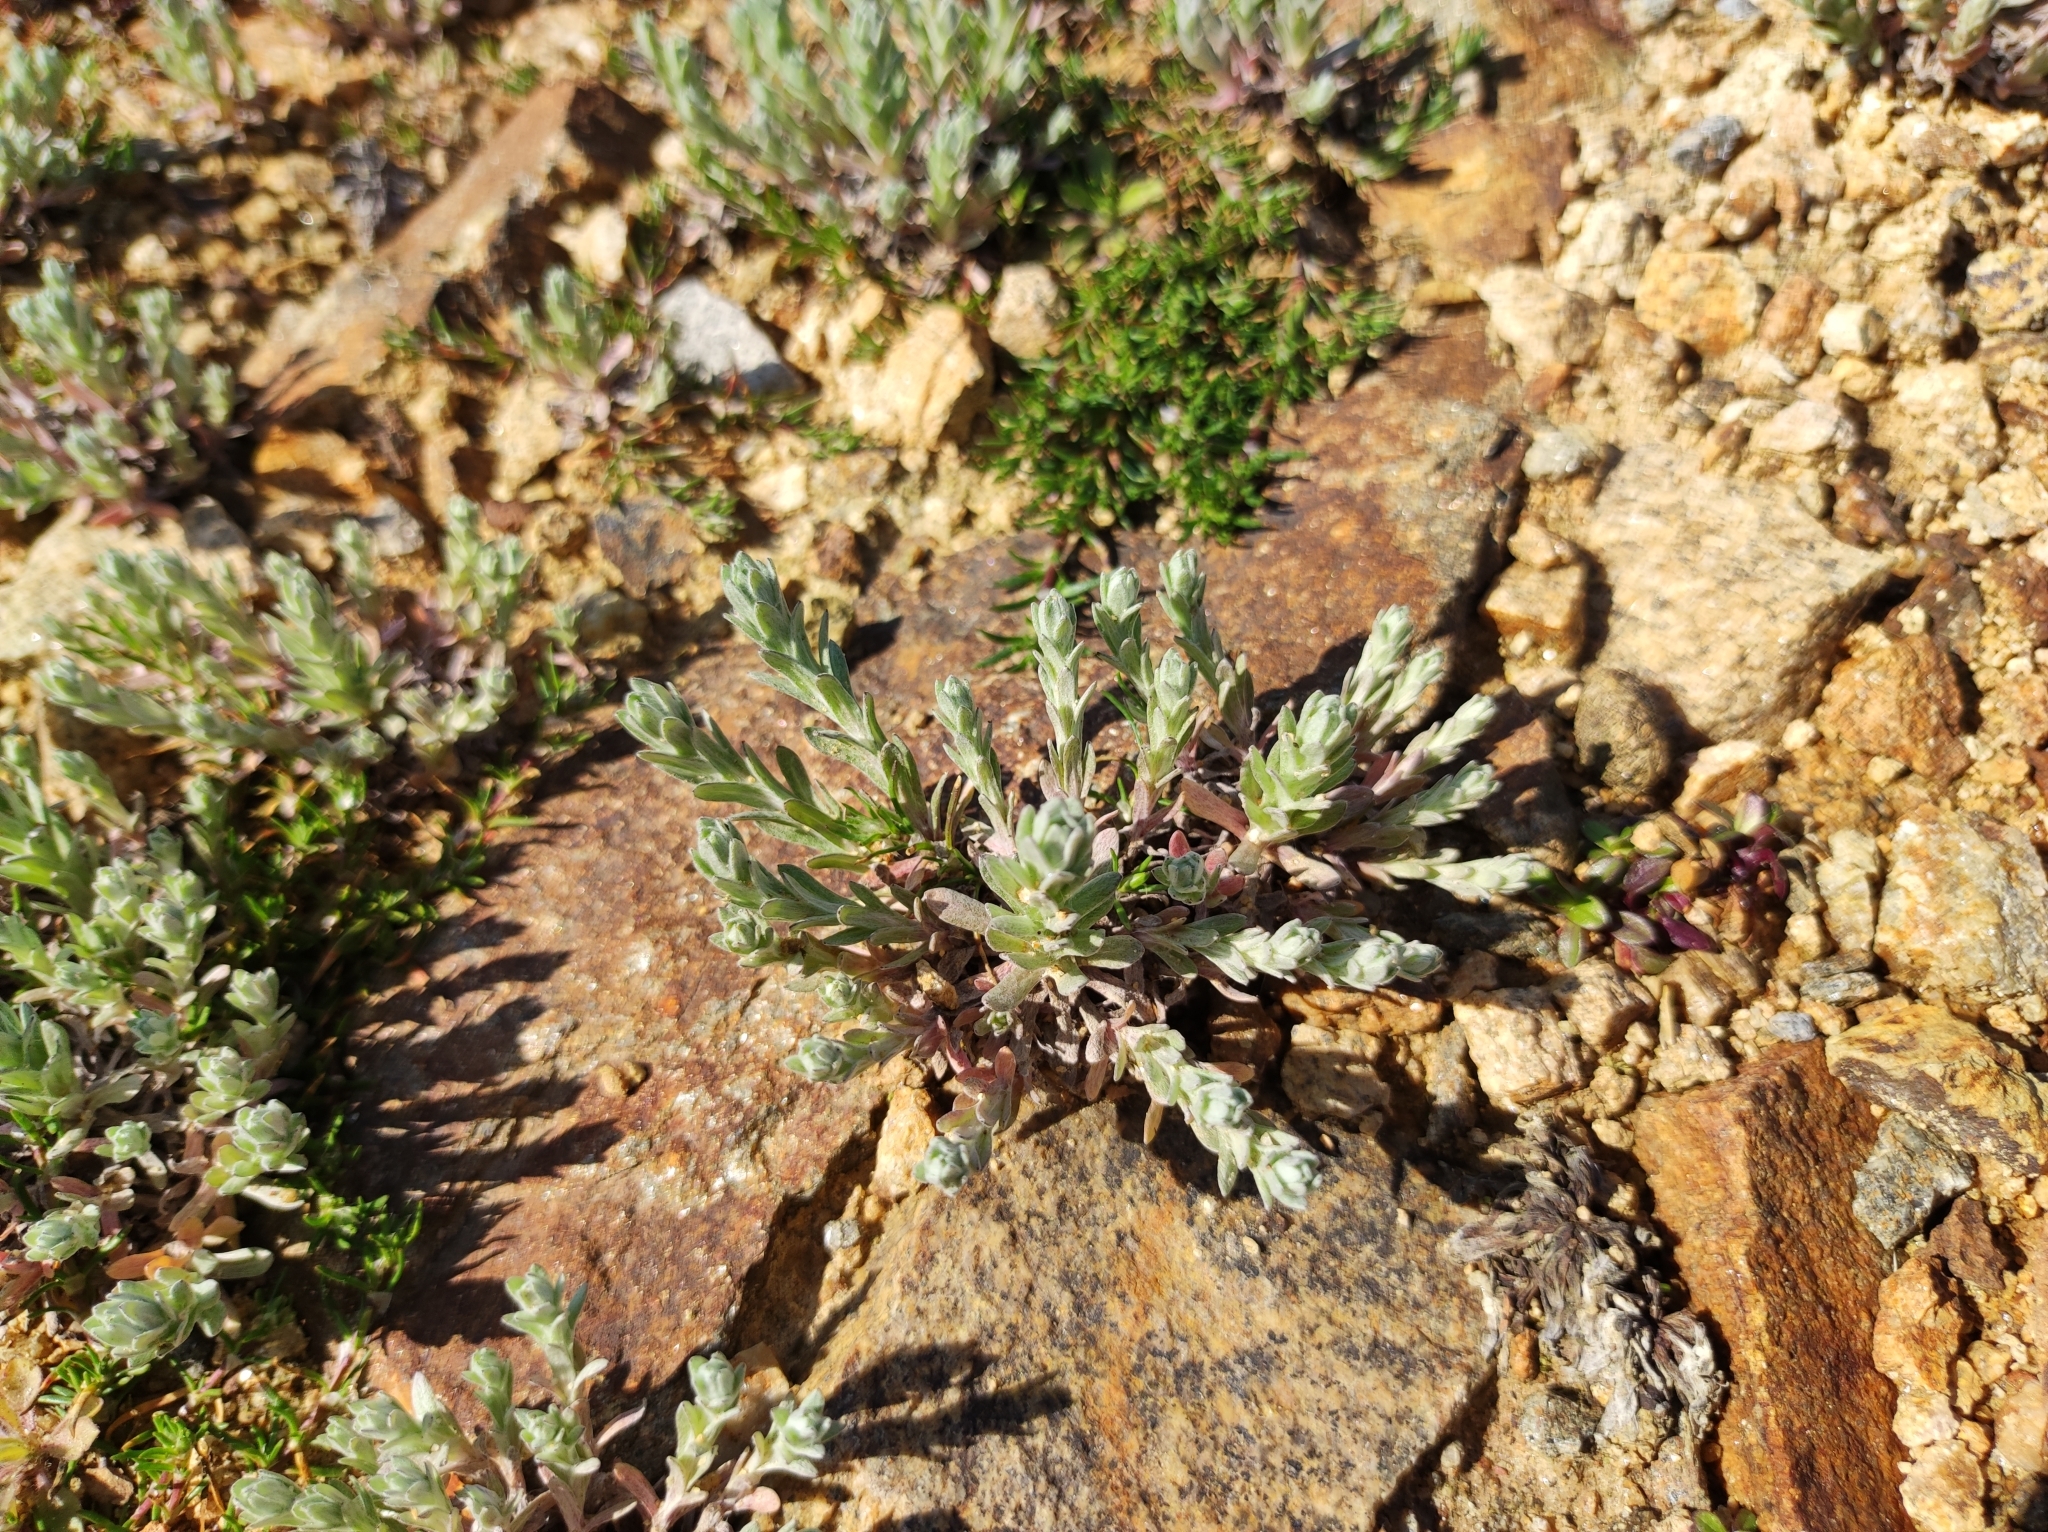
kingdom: Plantae
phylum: Tracheophyta
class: Magnoliopsida
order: Asterales
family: Asteraceae
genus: Filago
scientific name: Filago arvensis
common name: Field cudweed
